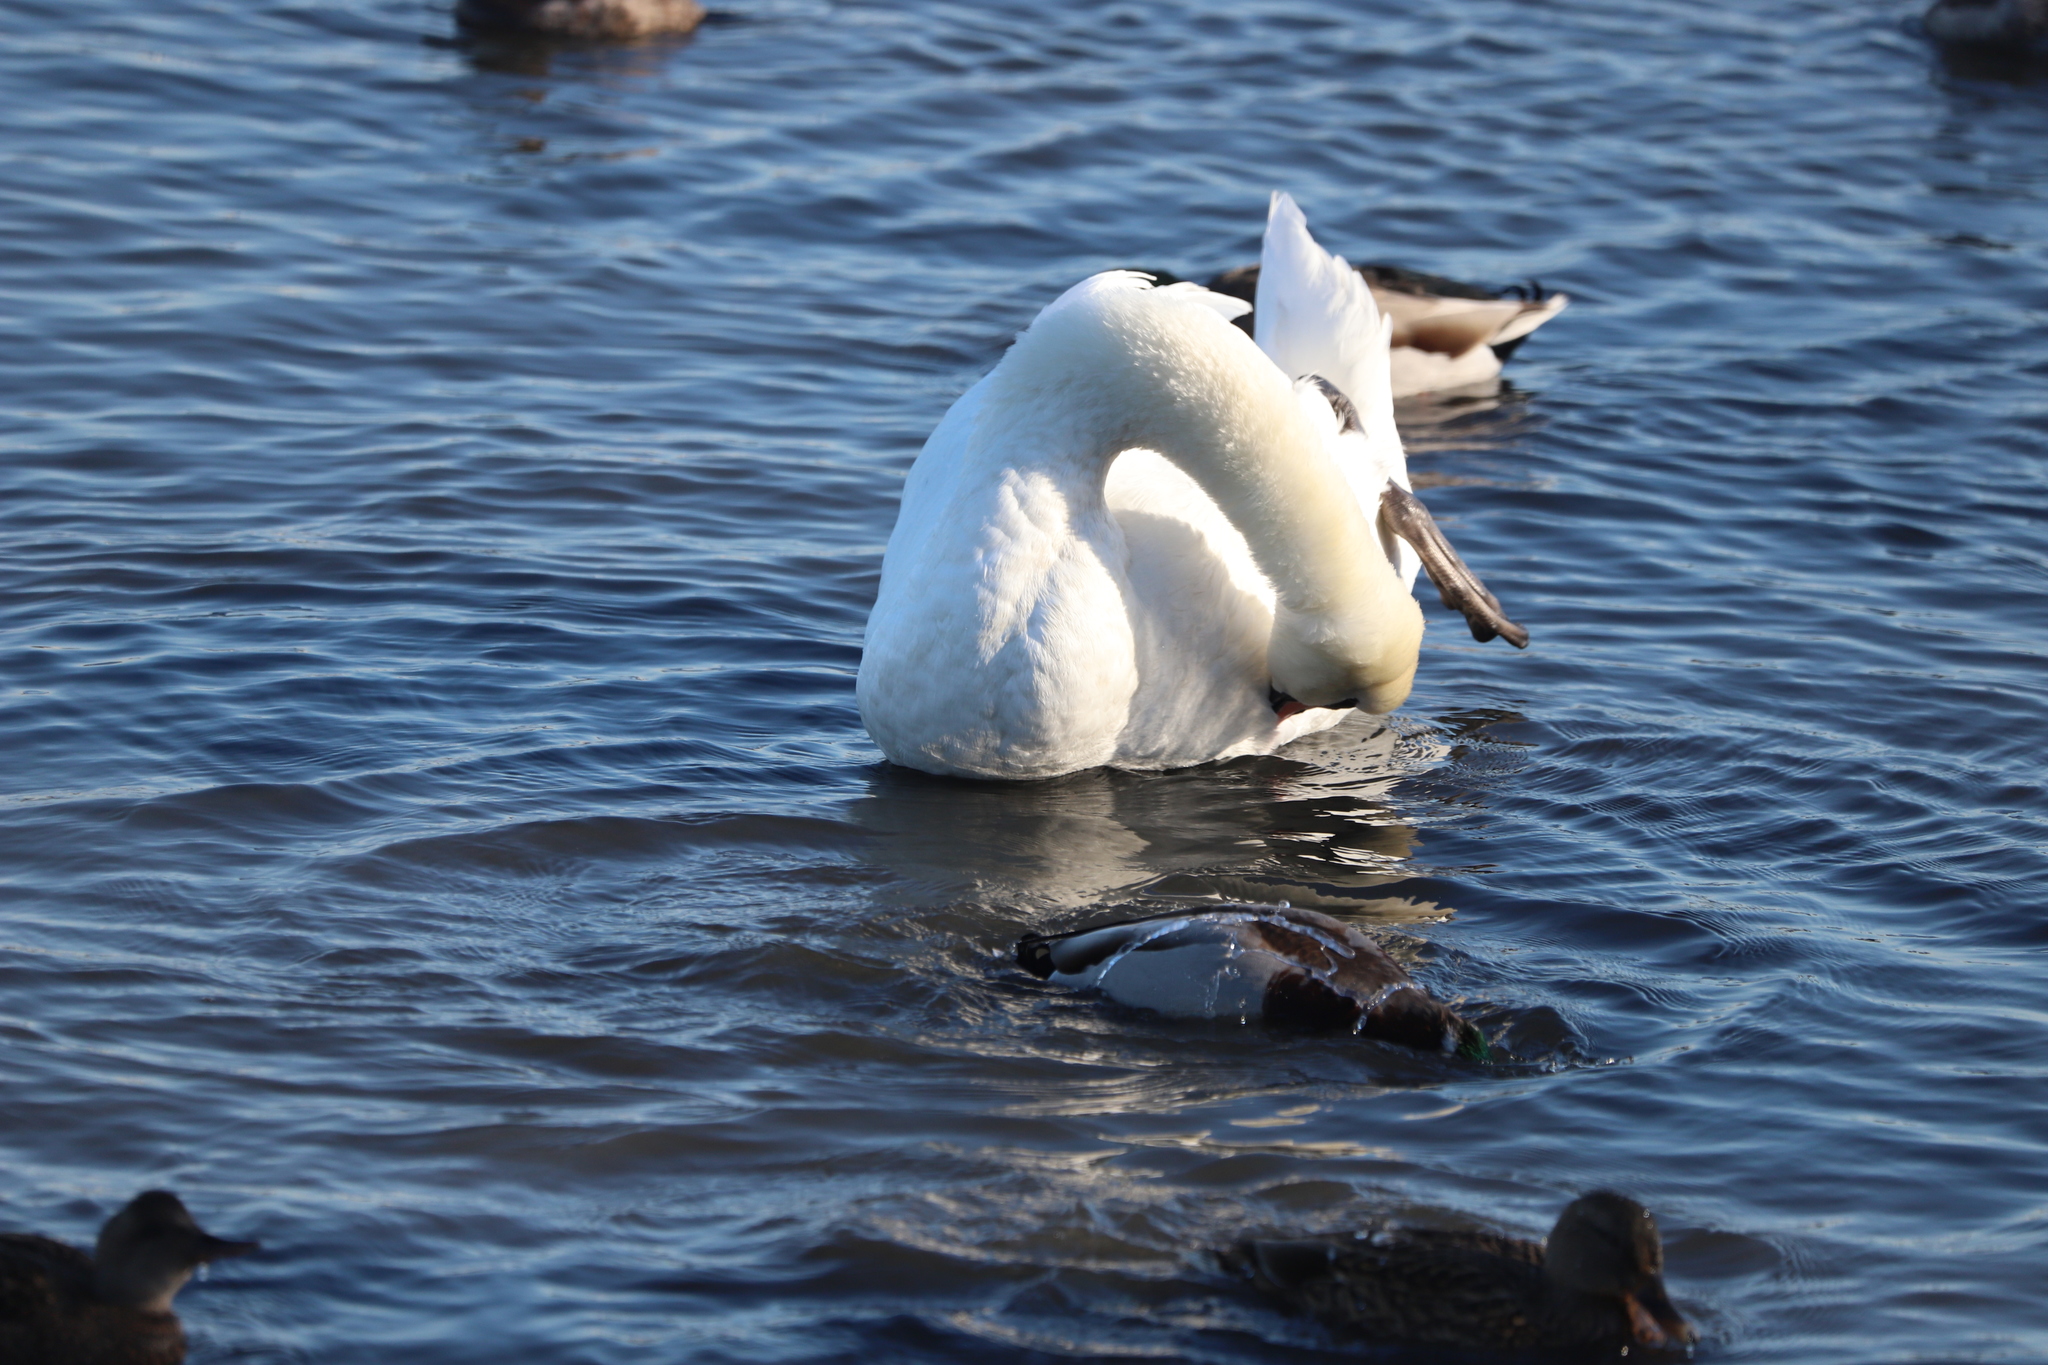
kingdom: Animalia
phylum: Chordata
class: Aves
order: Anseriformes
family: Anatidae
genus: Cygnus
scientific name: Cygnus olor
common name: Mute swan
